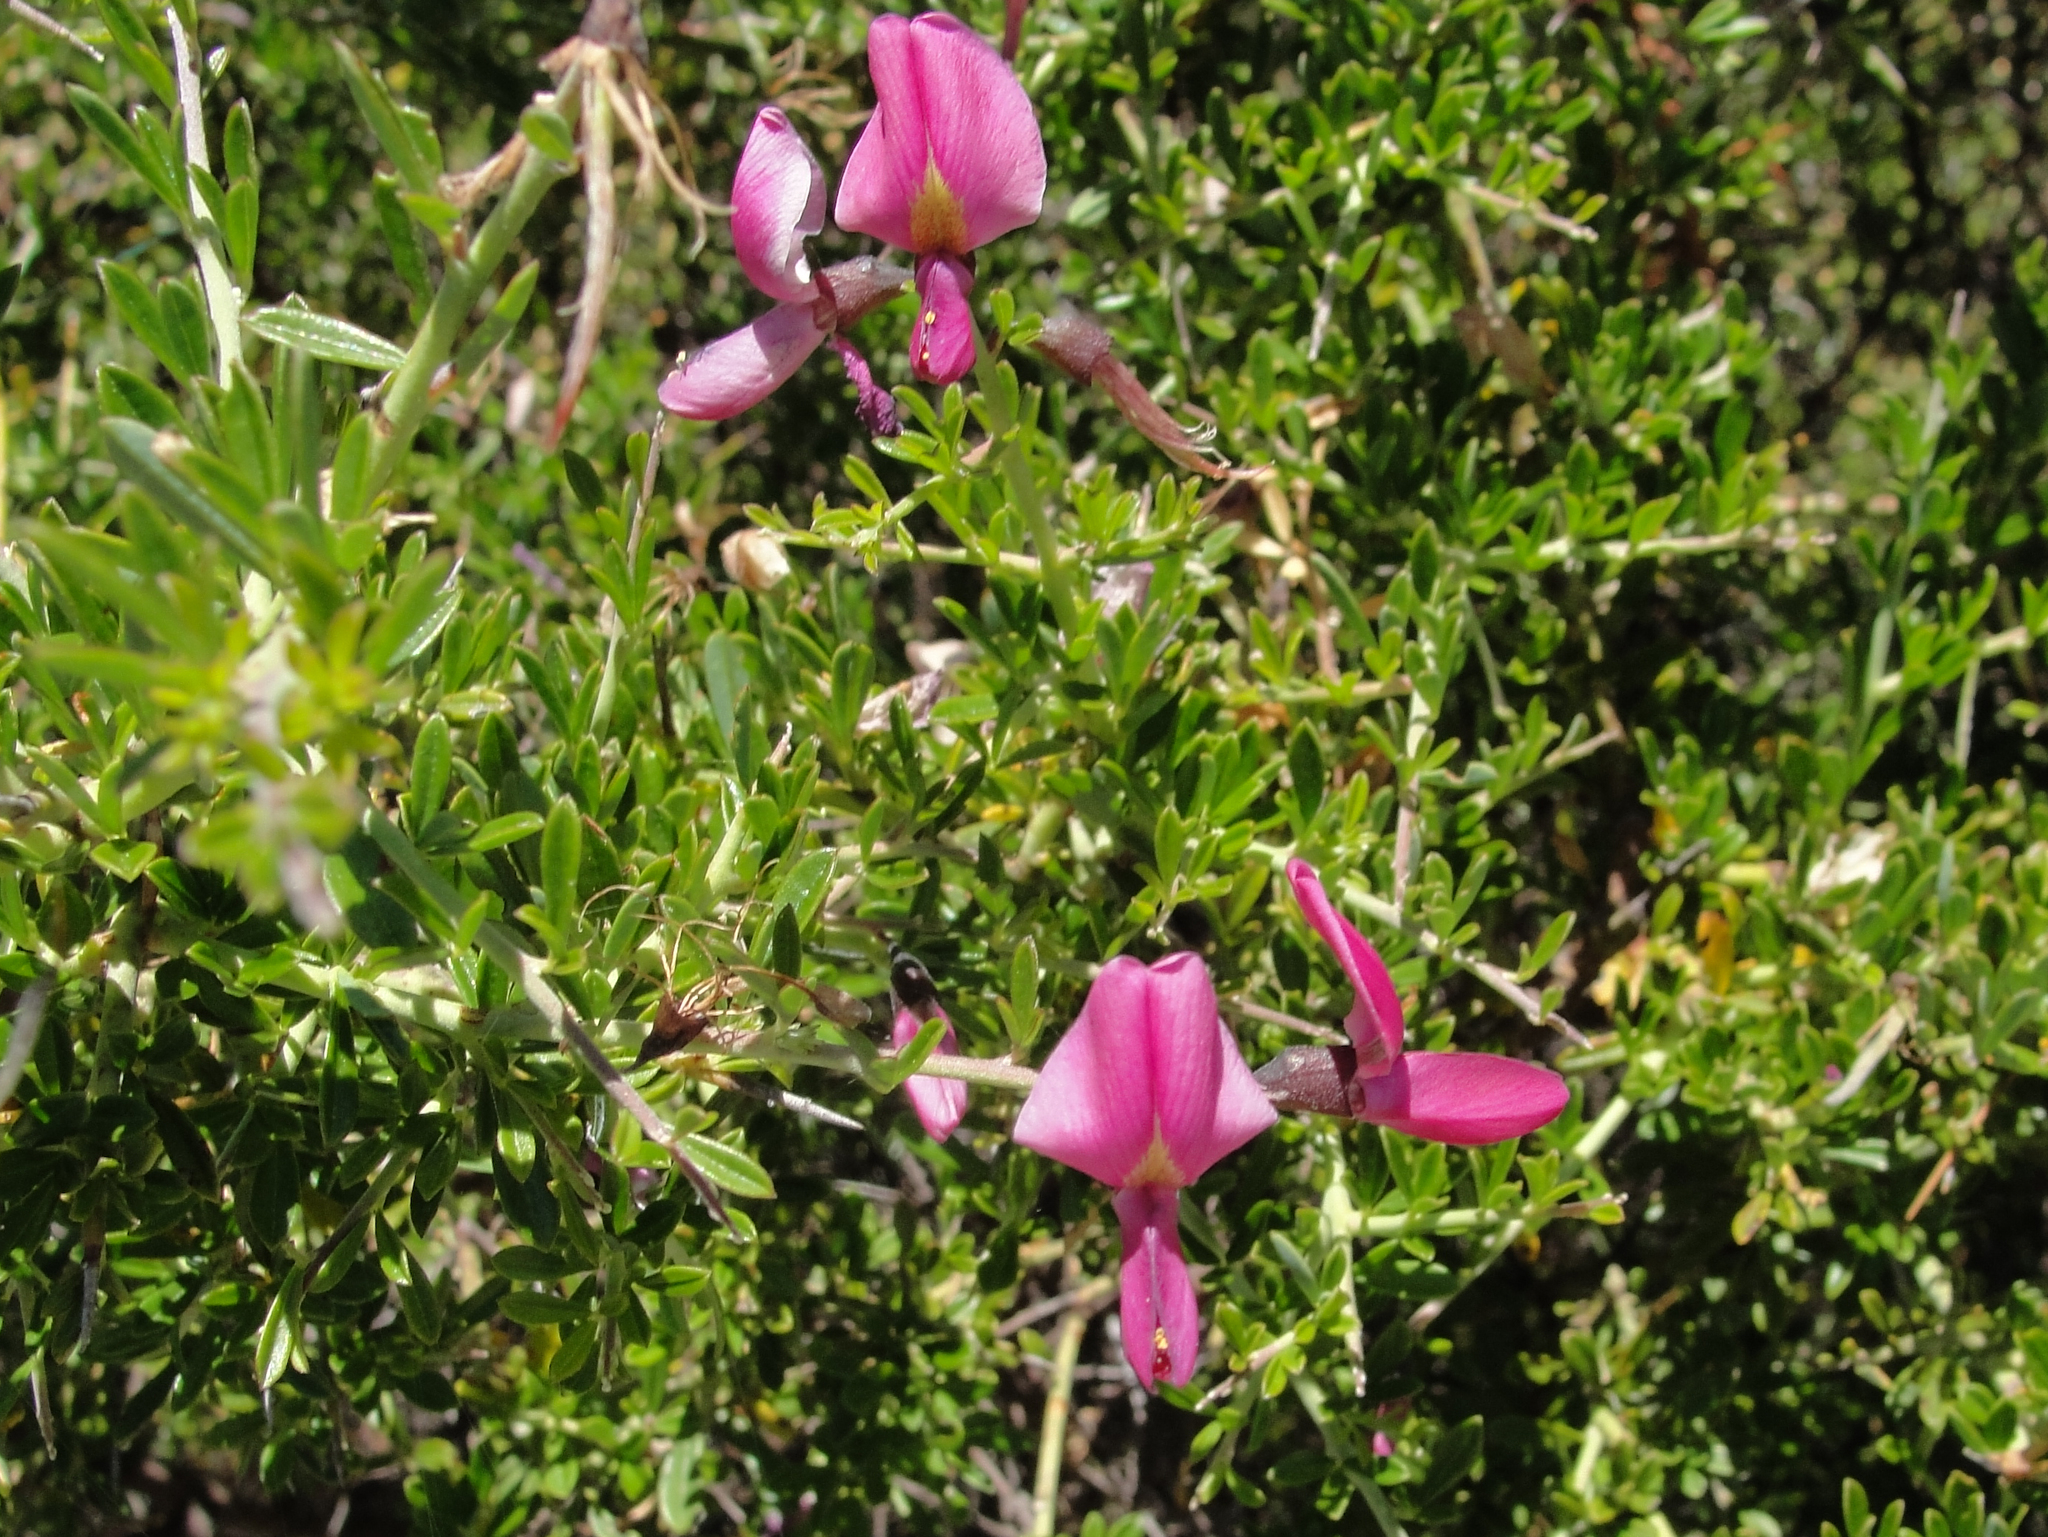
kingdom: Plantae
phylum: Tracheophyta
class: Magnoliopsida
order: Fabales
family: Fabaceae
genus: Pickeringia
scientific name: Pickeringia montana
